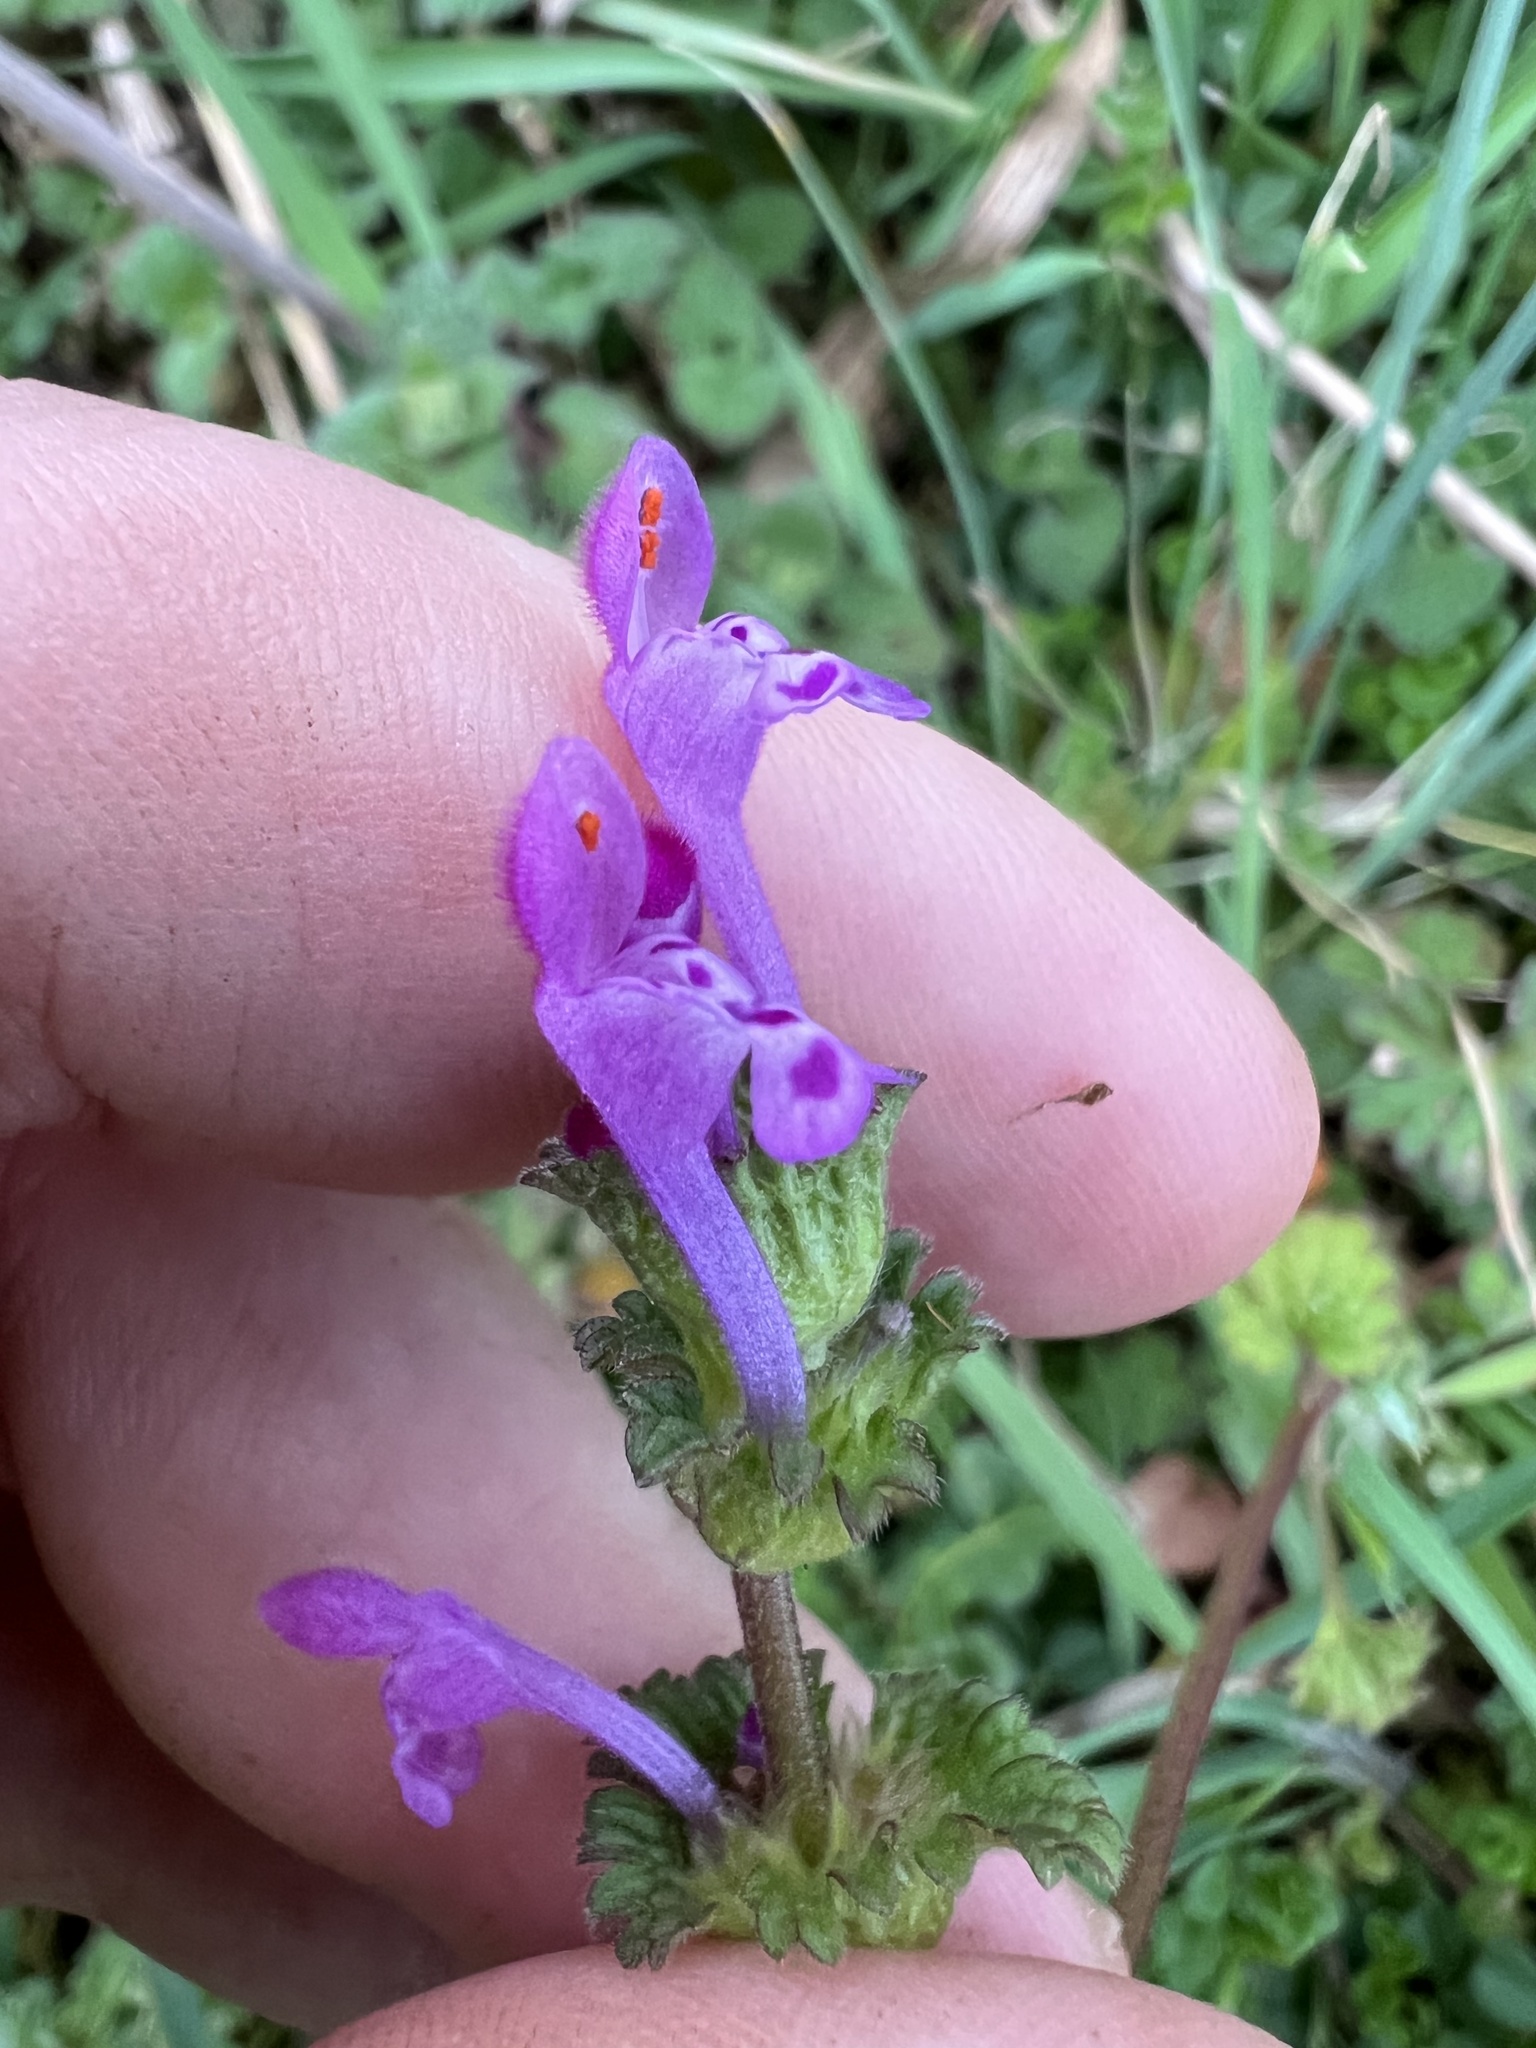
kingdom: Plantae
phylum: Tracheophyta
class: Magnoliopsida
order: Lamiales
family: Lamiaceae
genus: Lamium
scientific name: Lamium amplexicaule
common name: Henbit dead-nettle
